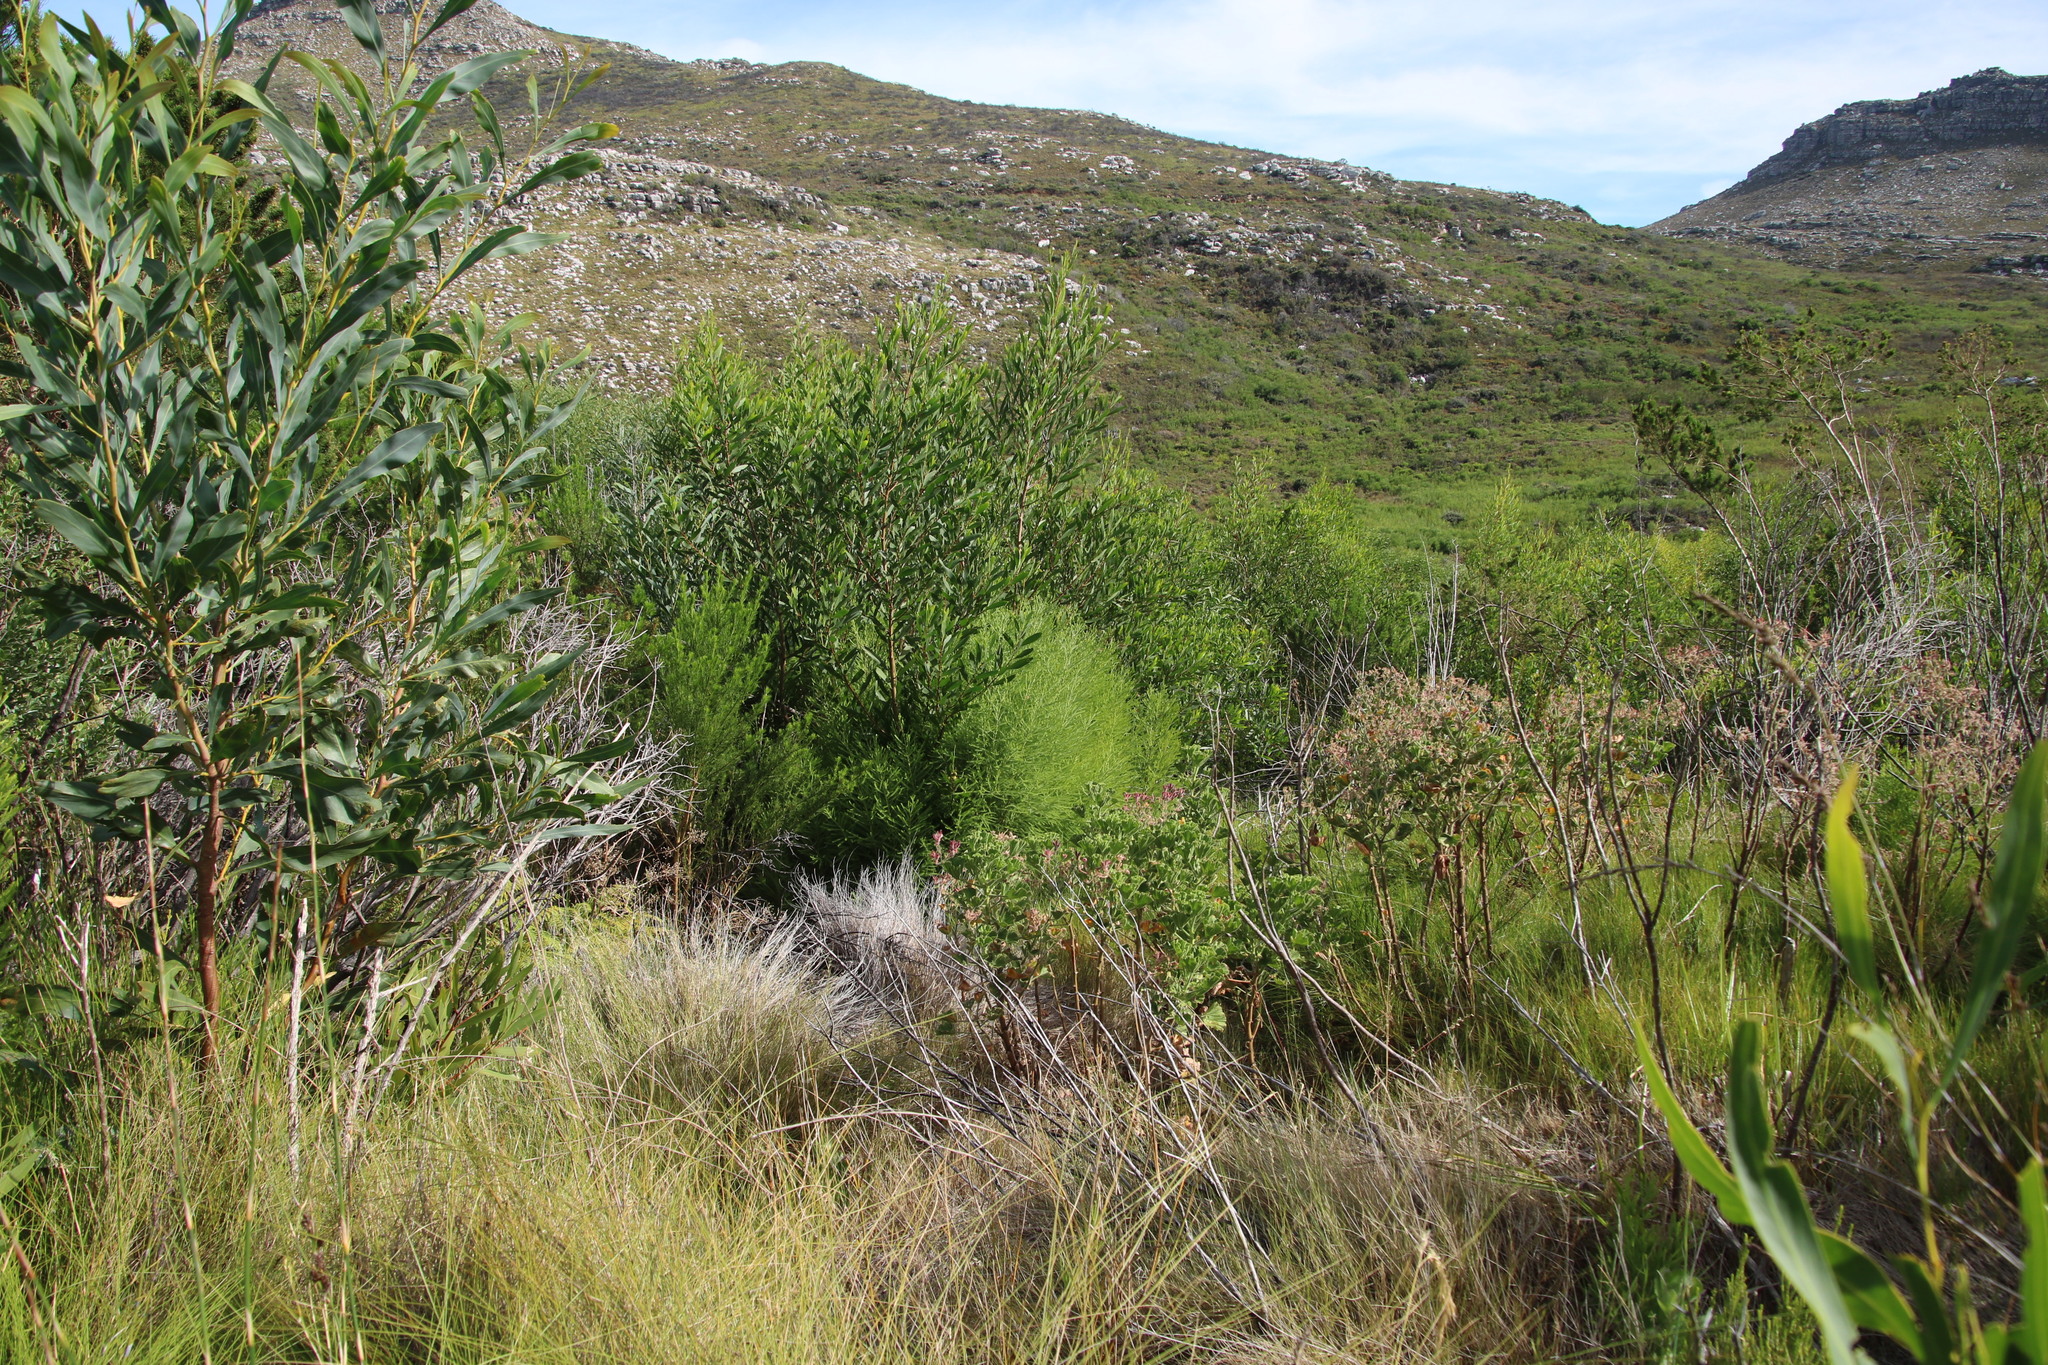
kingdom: Plantae
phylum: Tracheophyta
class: Magnoliopsida
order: Bruniales
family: Bruniaceae
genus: Berzelia
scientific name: Berzelia lanuginosa
